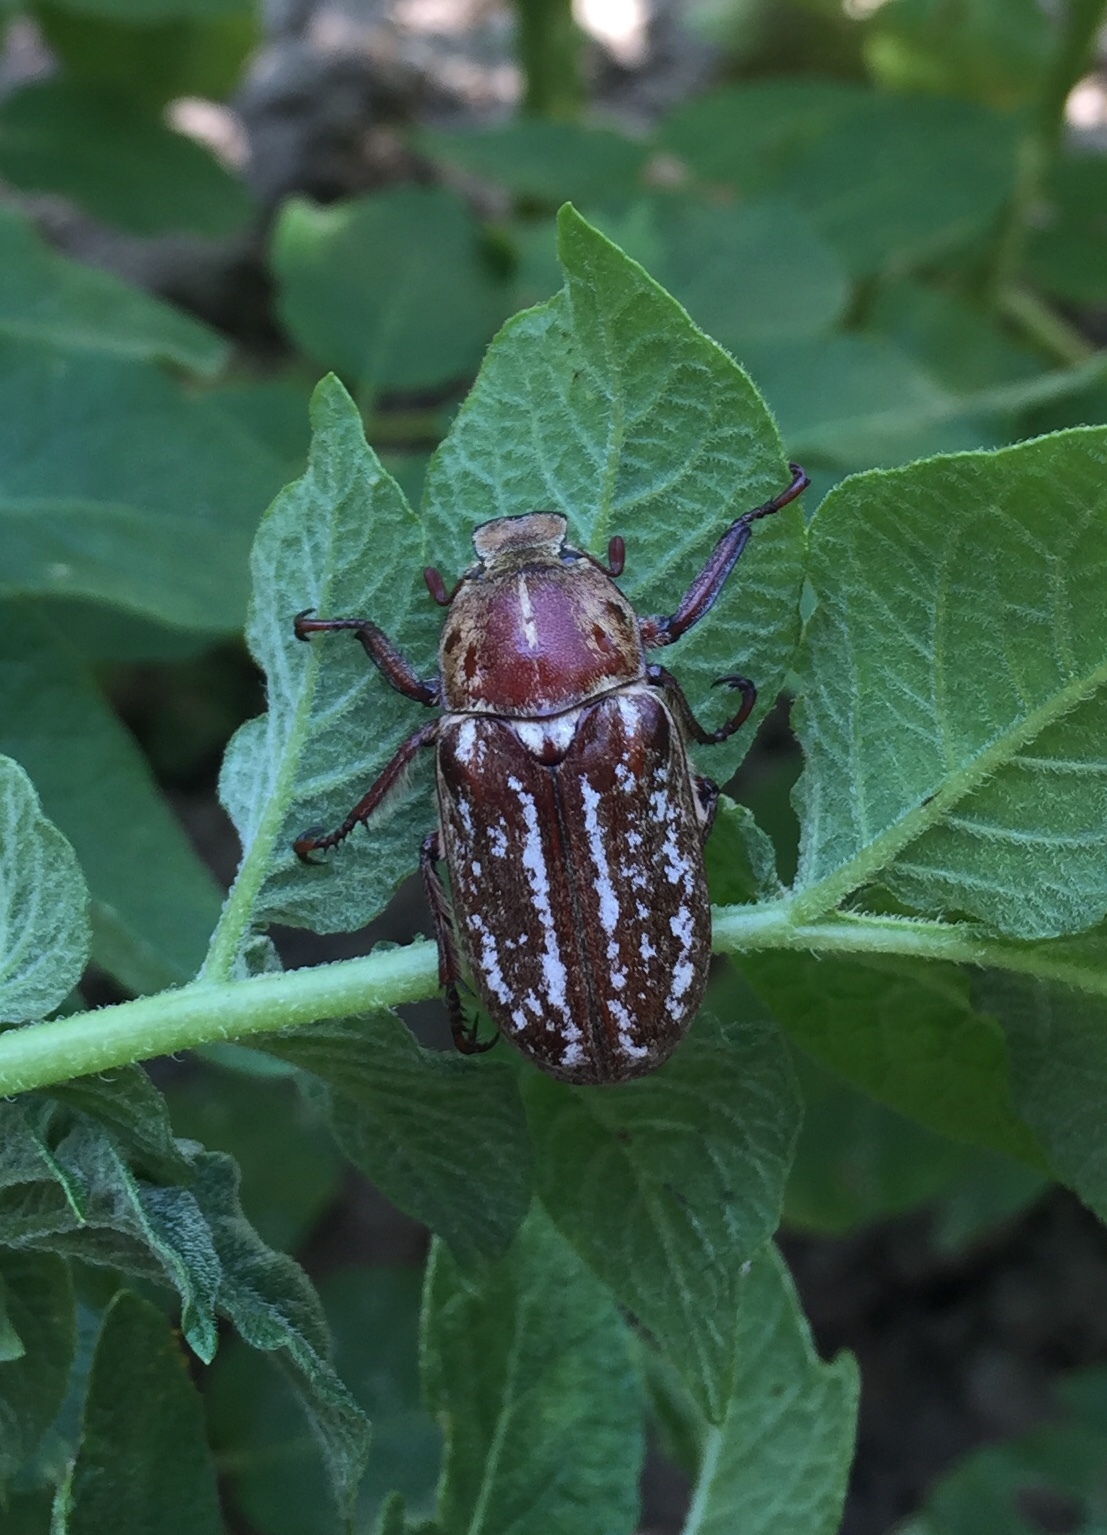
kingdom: Animalia
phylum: Arthropoda
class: Insecta
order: Coleoptera
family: Scarabaeidae
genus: Anoxia
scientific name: Anoxia orientalis
